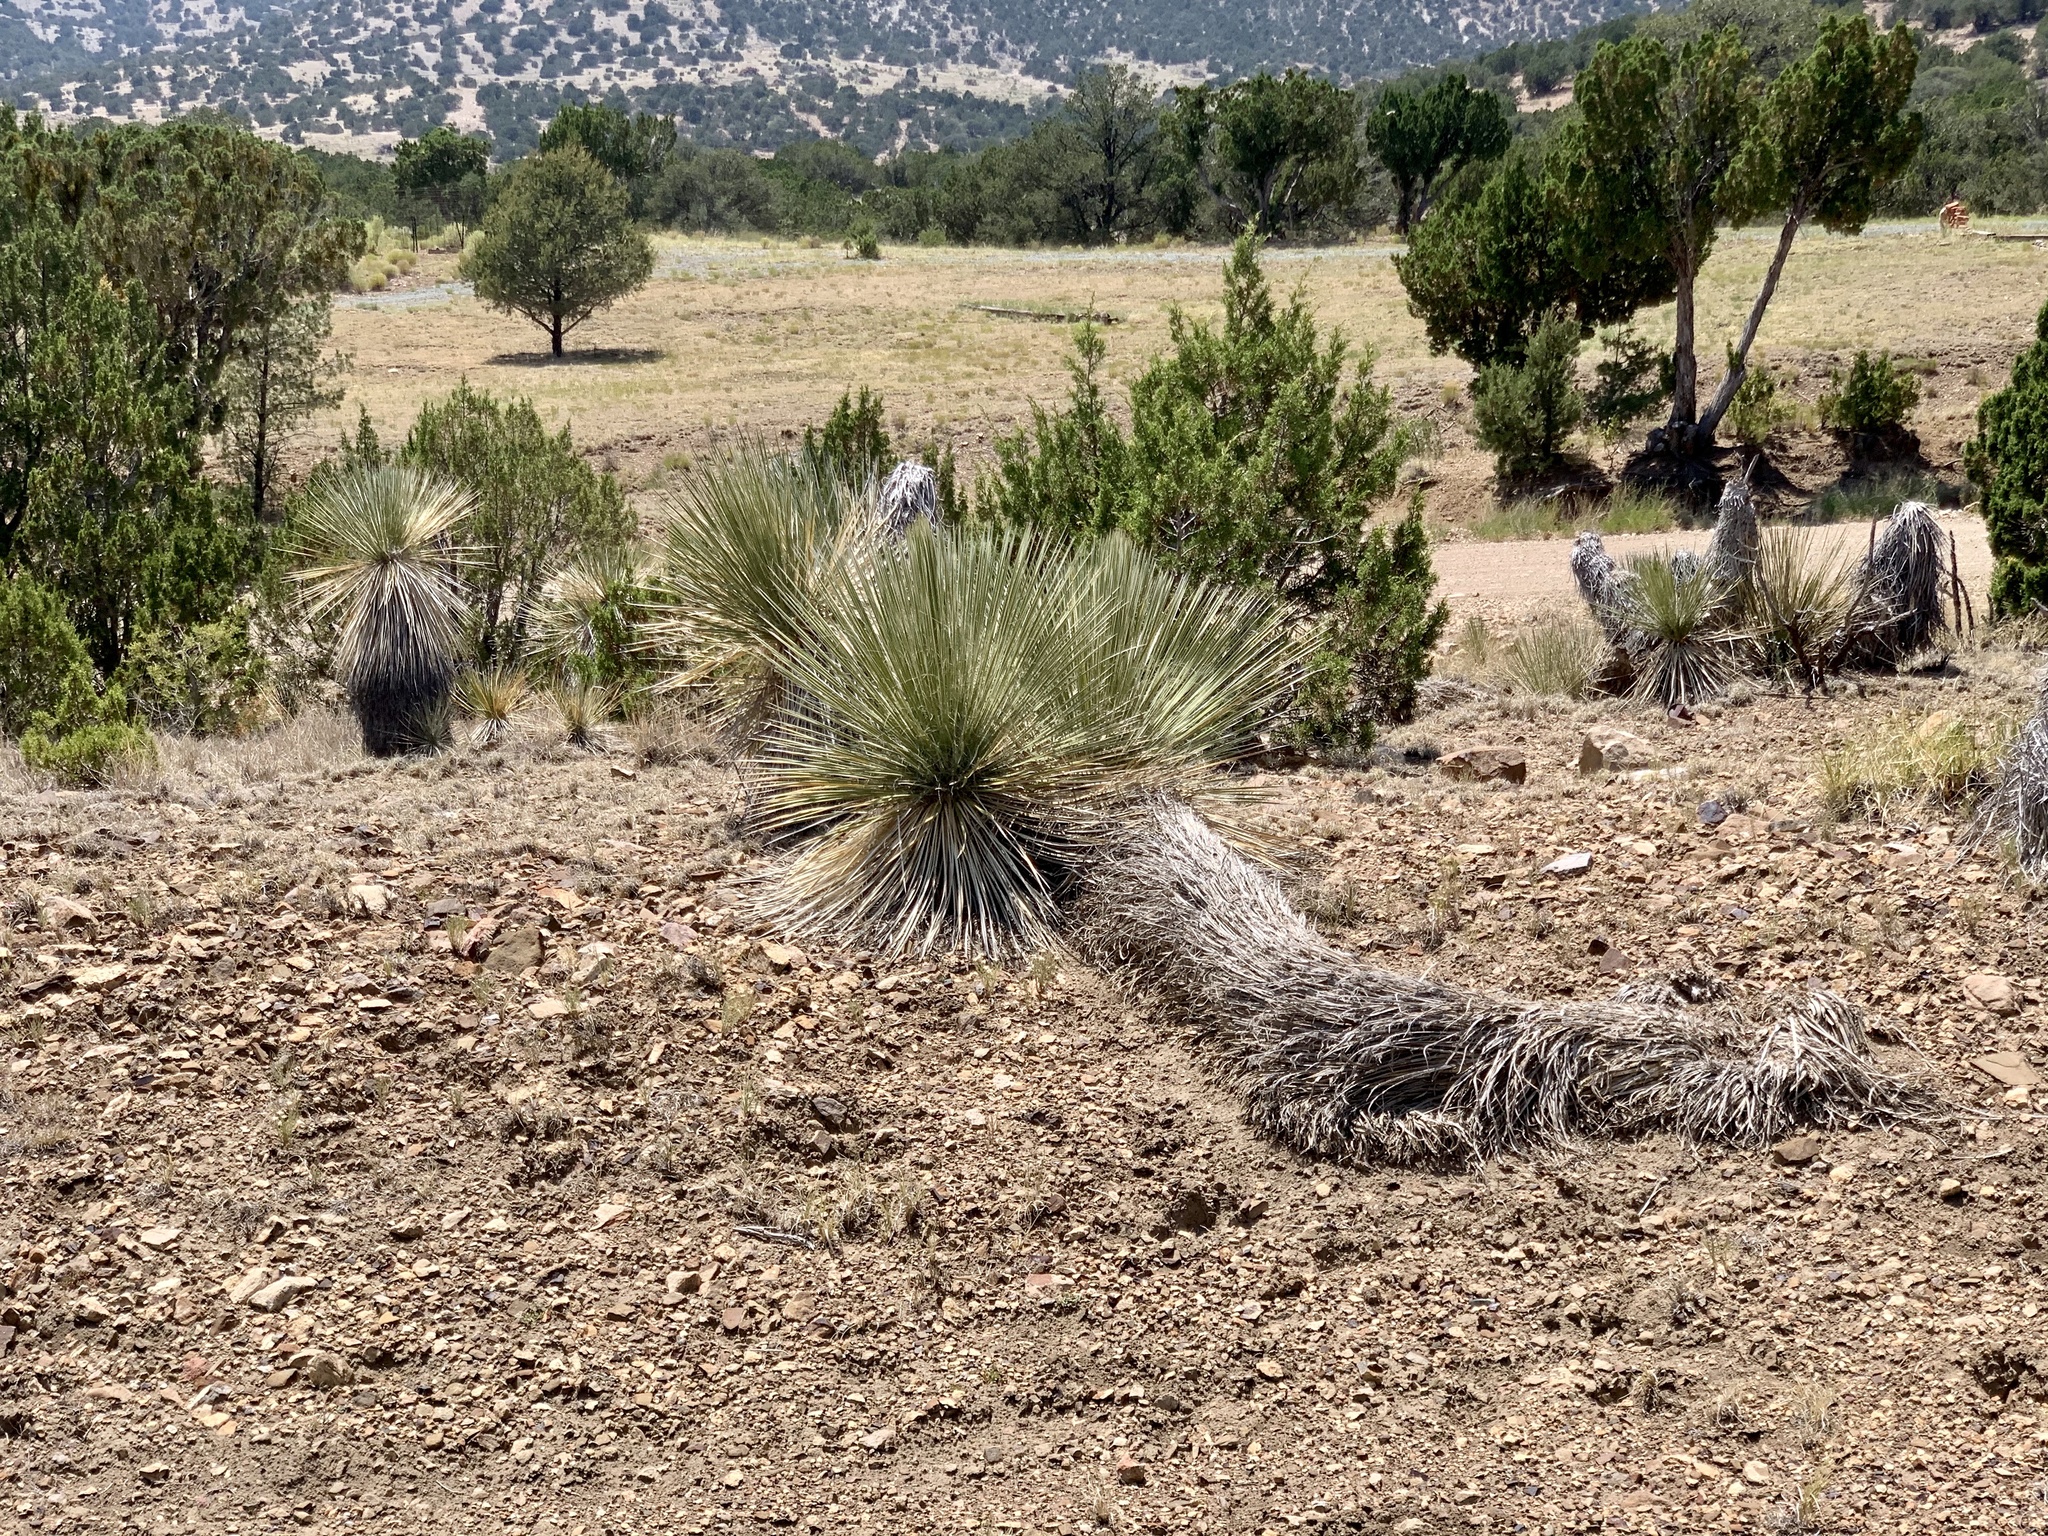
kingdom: Plantae
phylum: Tracheophyta
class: Liliopsida
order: Asparagales
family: Asparagaceae
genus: Yucca
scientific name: Yucca elata
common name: Palmella
